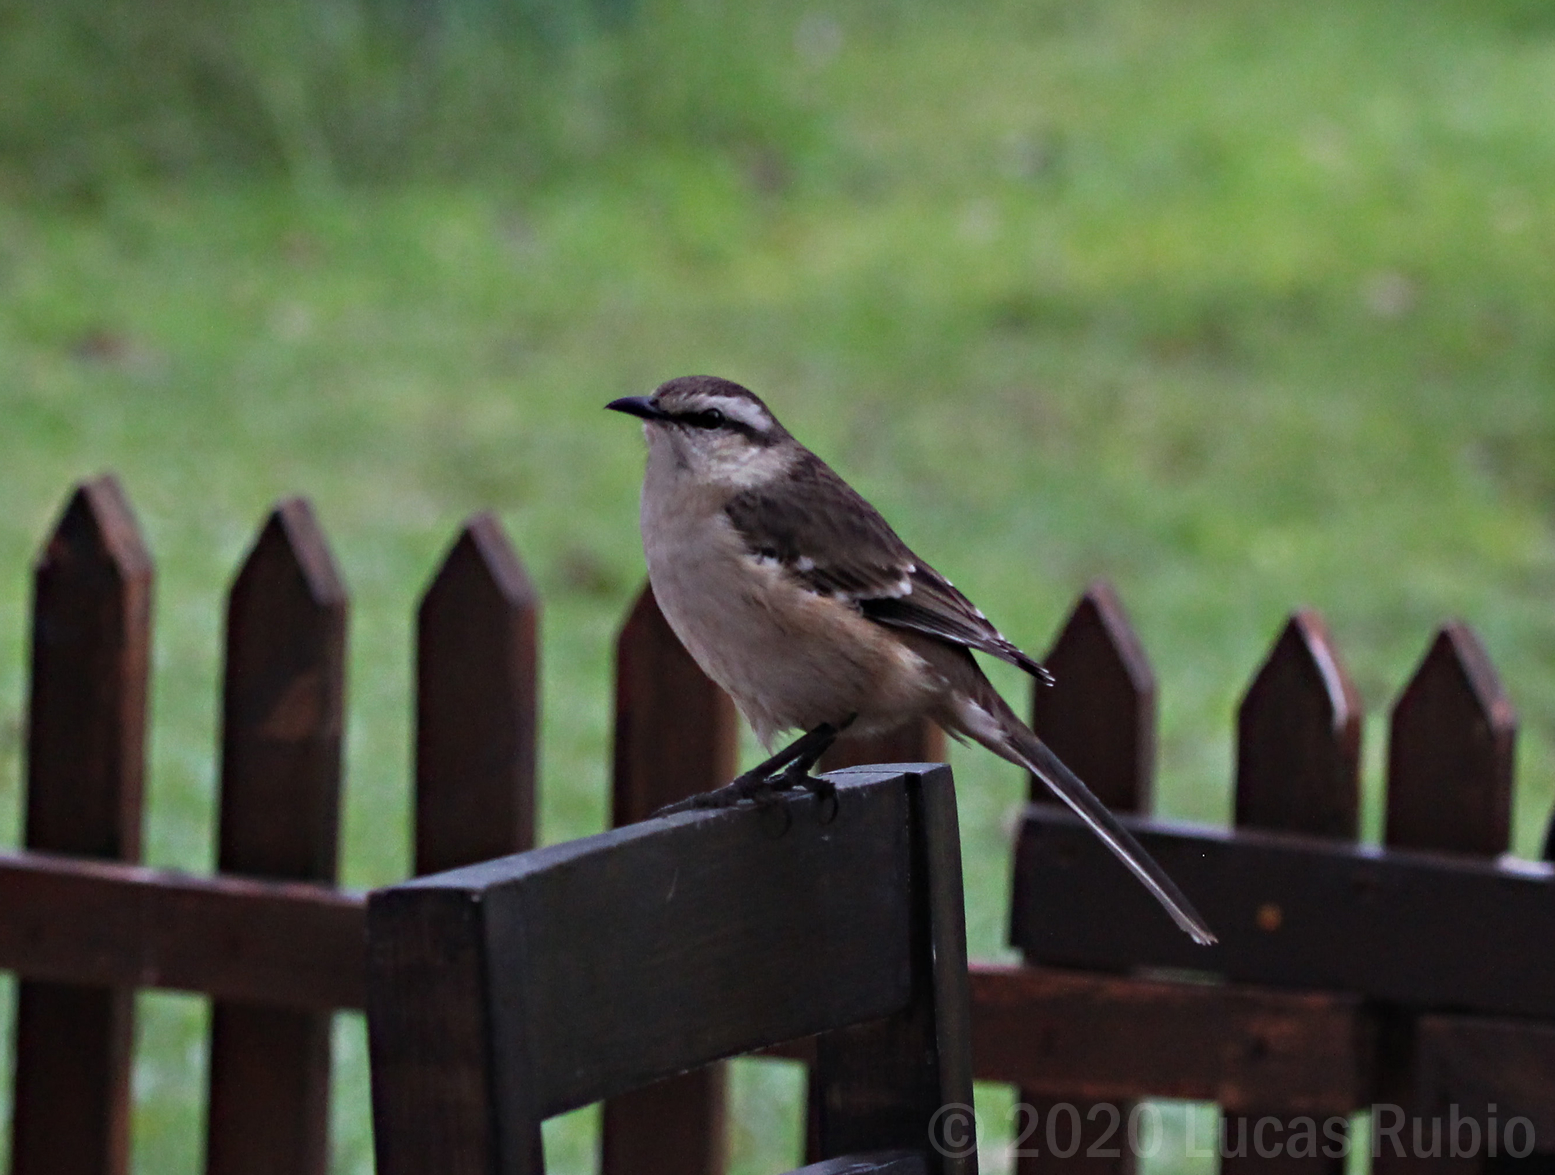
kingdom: Animalia
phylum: Chordata
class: Aves
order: Passeriformes
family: Mimidae
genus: Mimus
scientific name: Mimus saturninus
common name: Chalk-browed mockingbird
